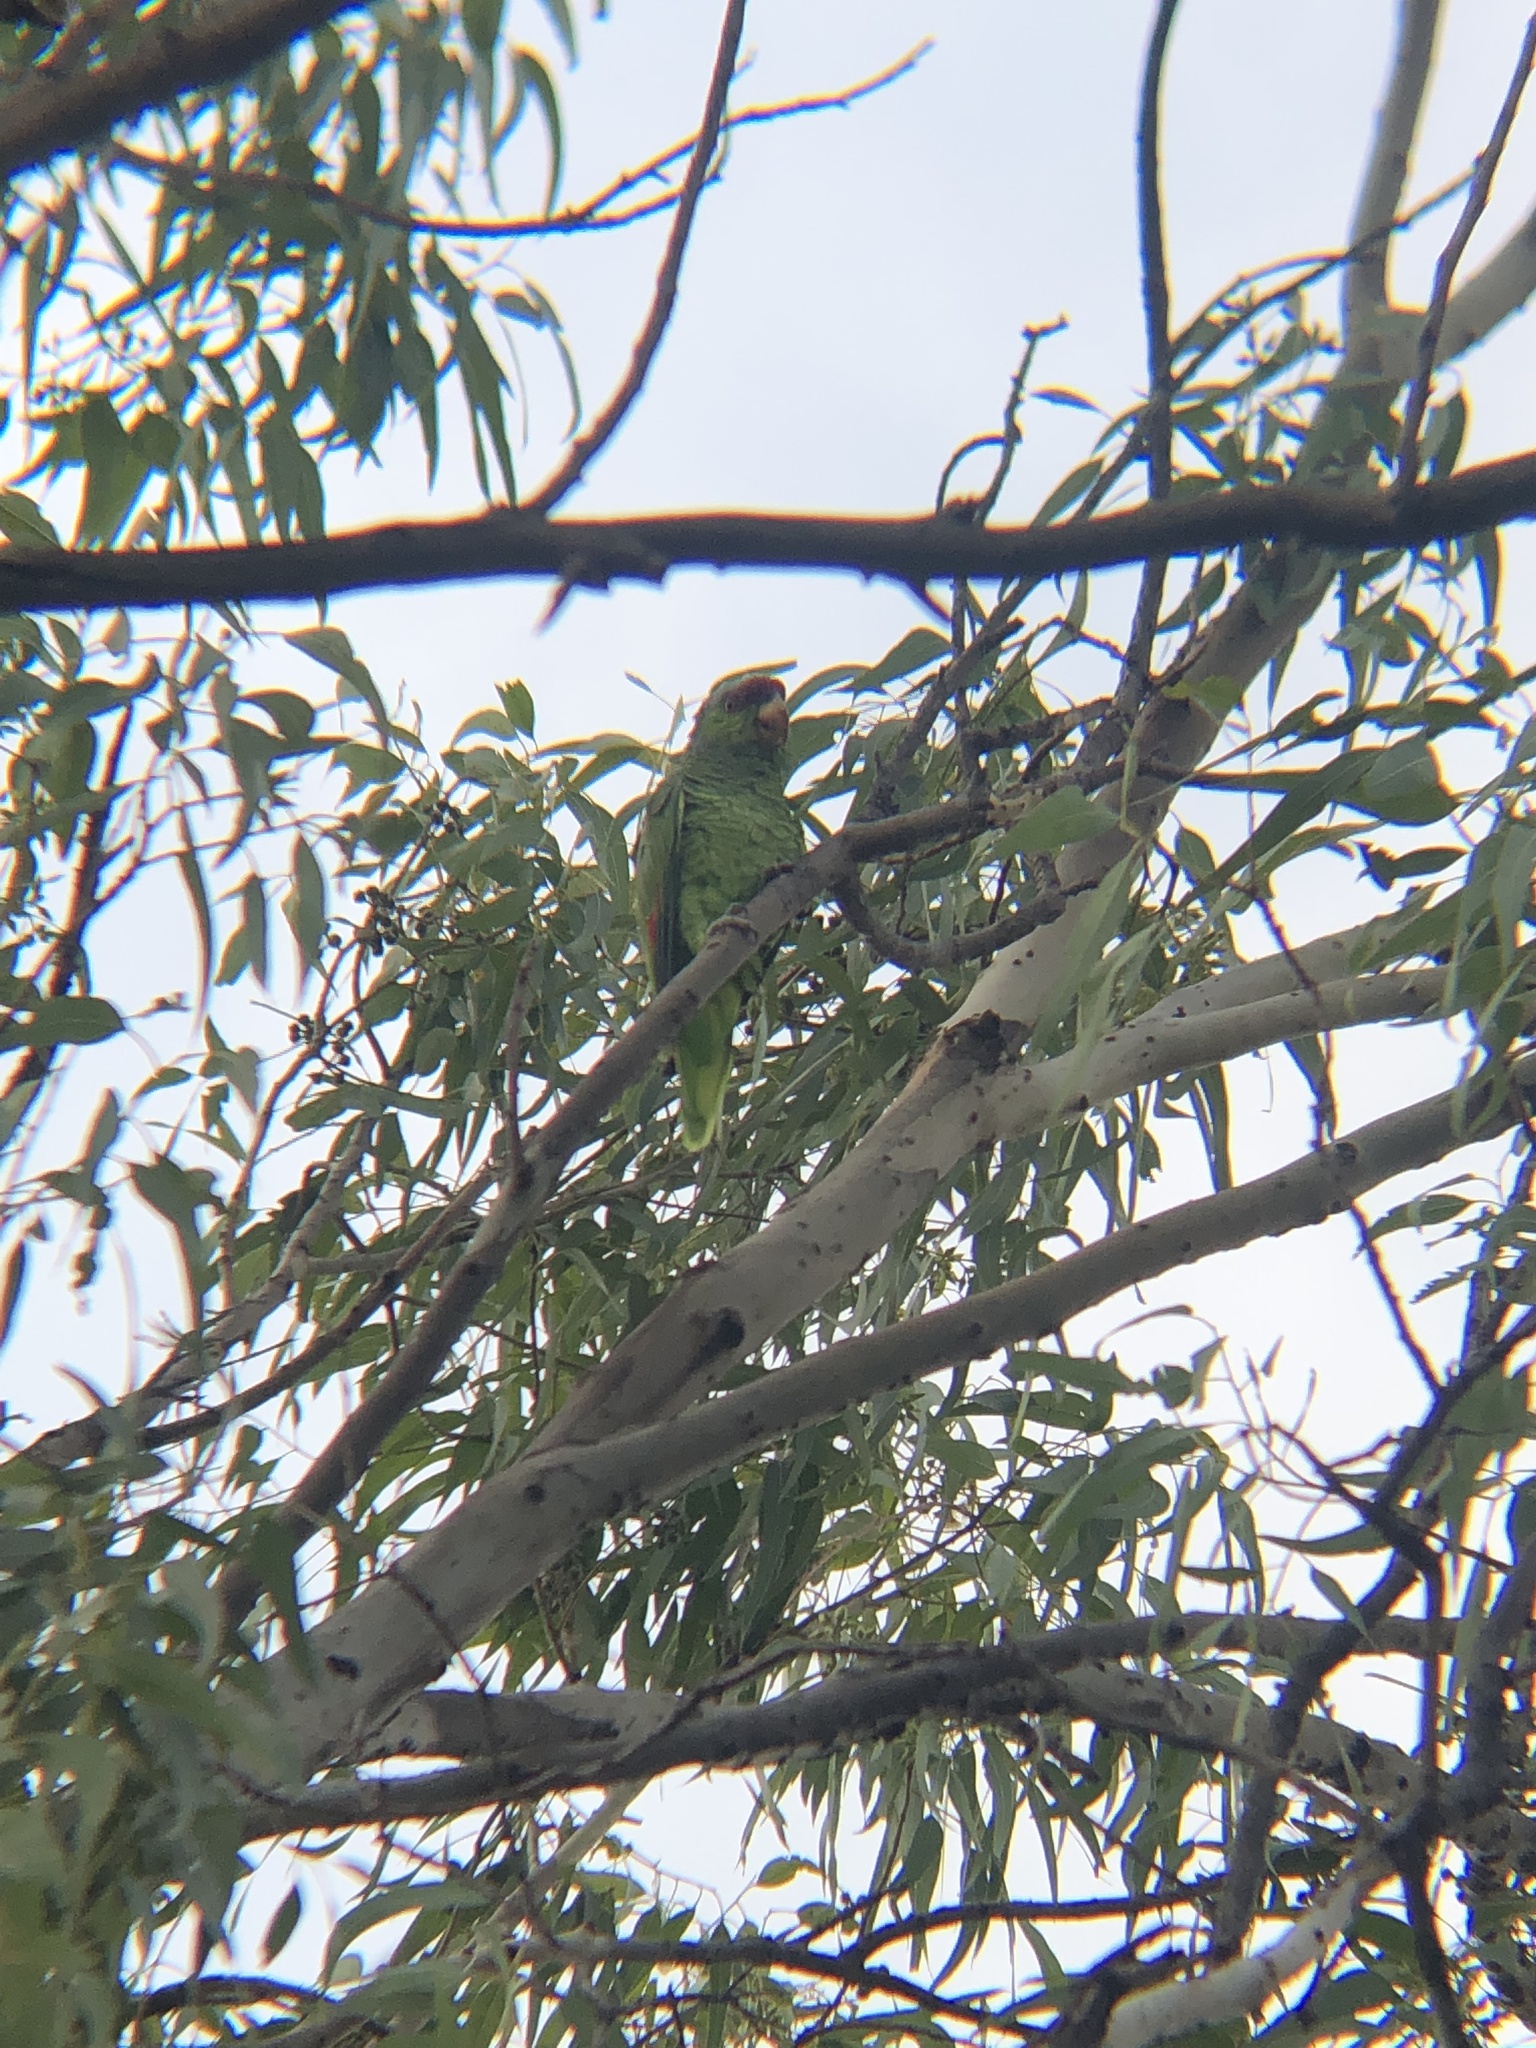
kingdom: Animalia
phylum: Chordata
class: Aves
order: Psittaciformes
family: Psittacidae
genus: Amazona
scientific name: Amazona finschi
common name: Lilac-crowned amazon
